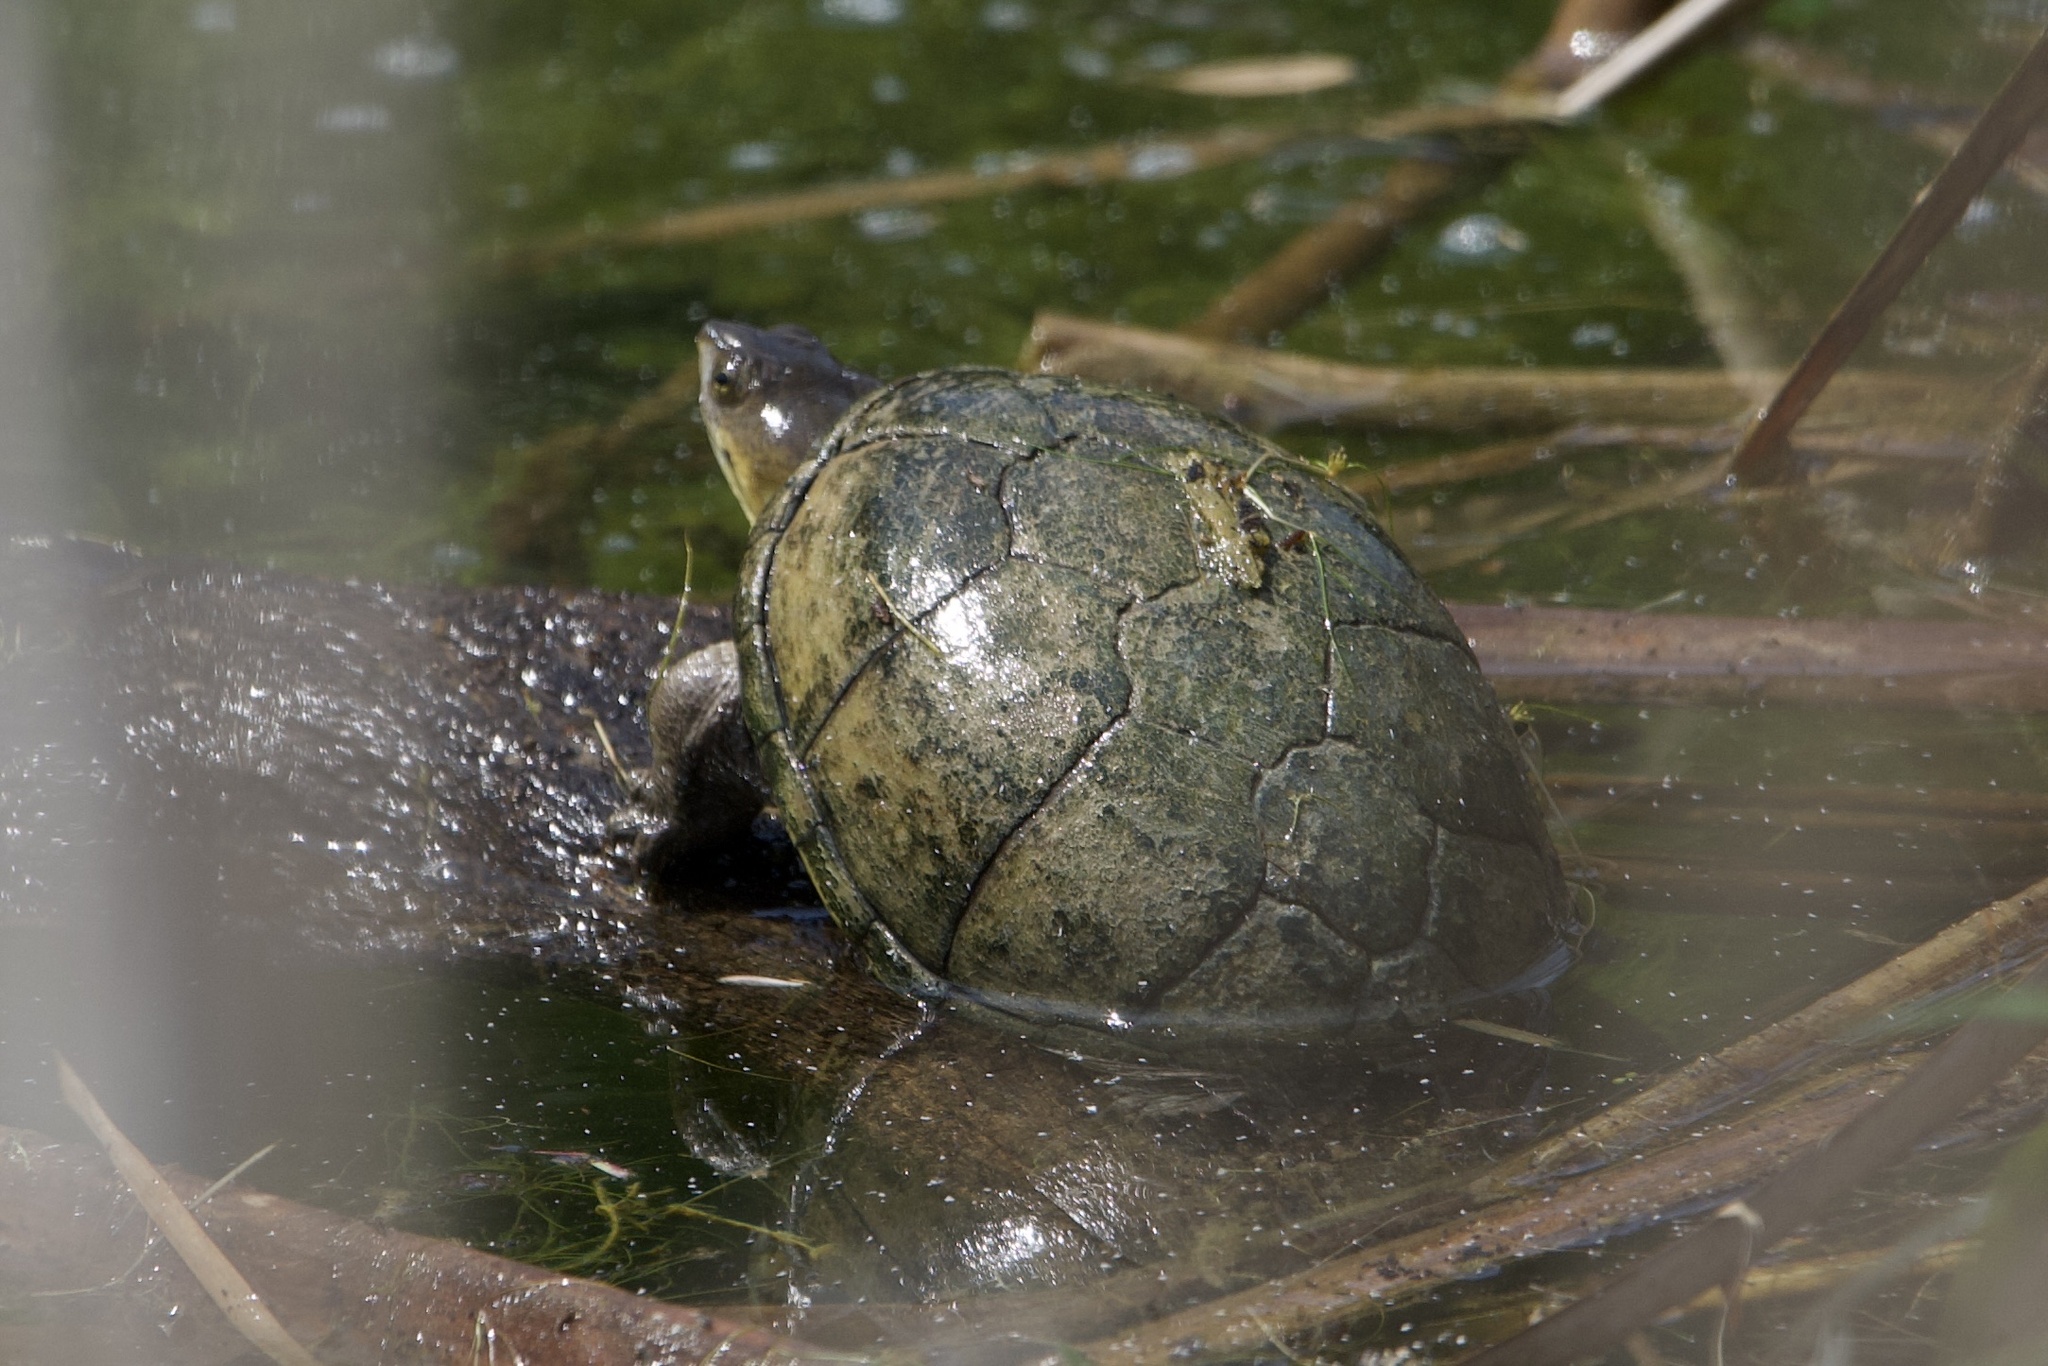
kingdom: Animalia
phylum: Chordata
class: Testudines
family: Kinosternidae
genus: Kinosternon
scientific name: Kinosternon flavescens
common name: Yellow mud turtle
